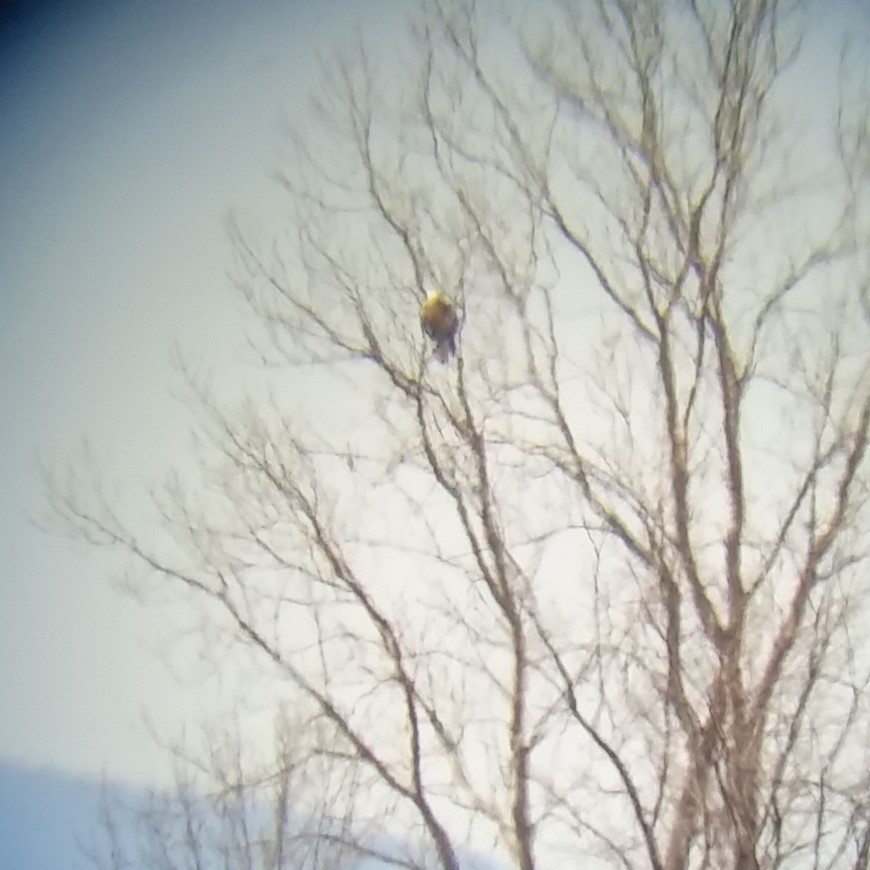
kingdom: Animalia
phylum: Chordata
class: Aves
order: Accipitriformes
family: Accipitridae
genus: Haliaeetus
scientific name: Haliaeetus leucocephalus
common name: Bald eagle
